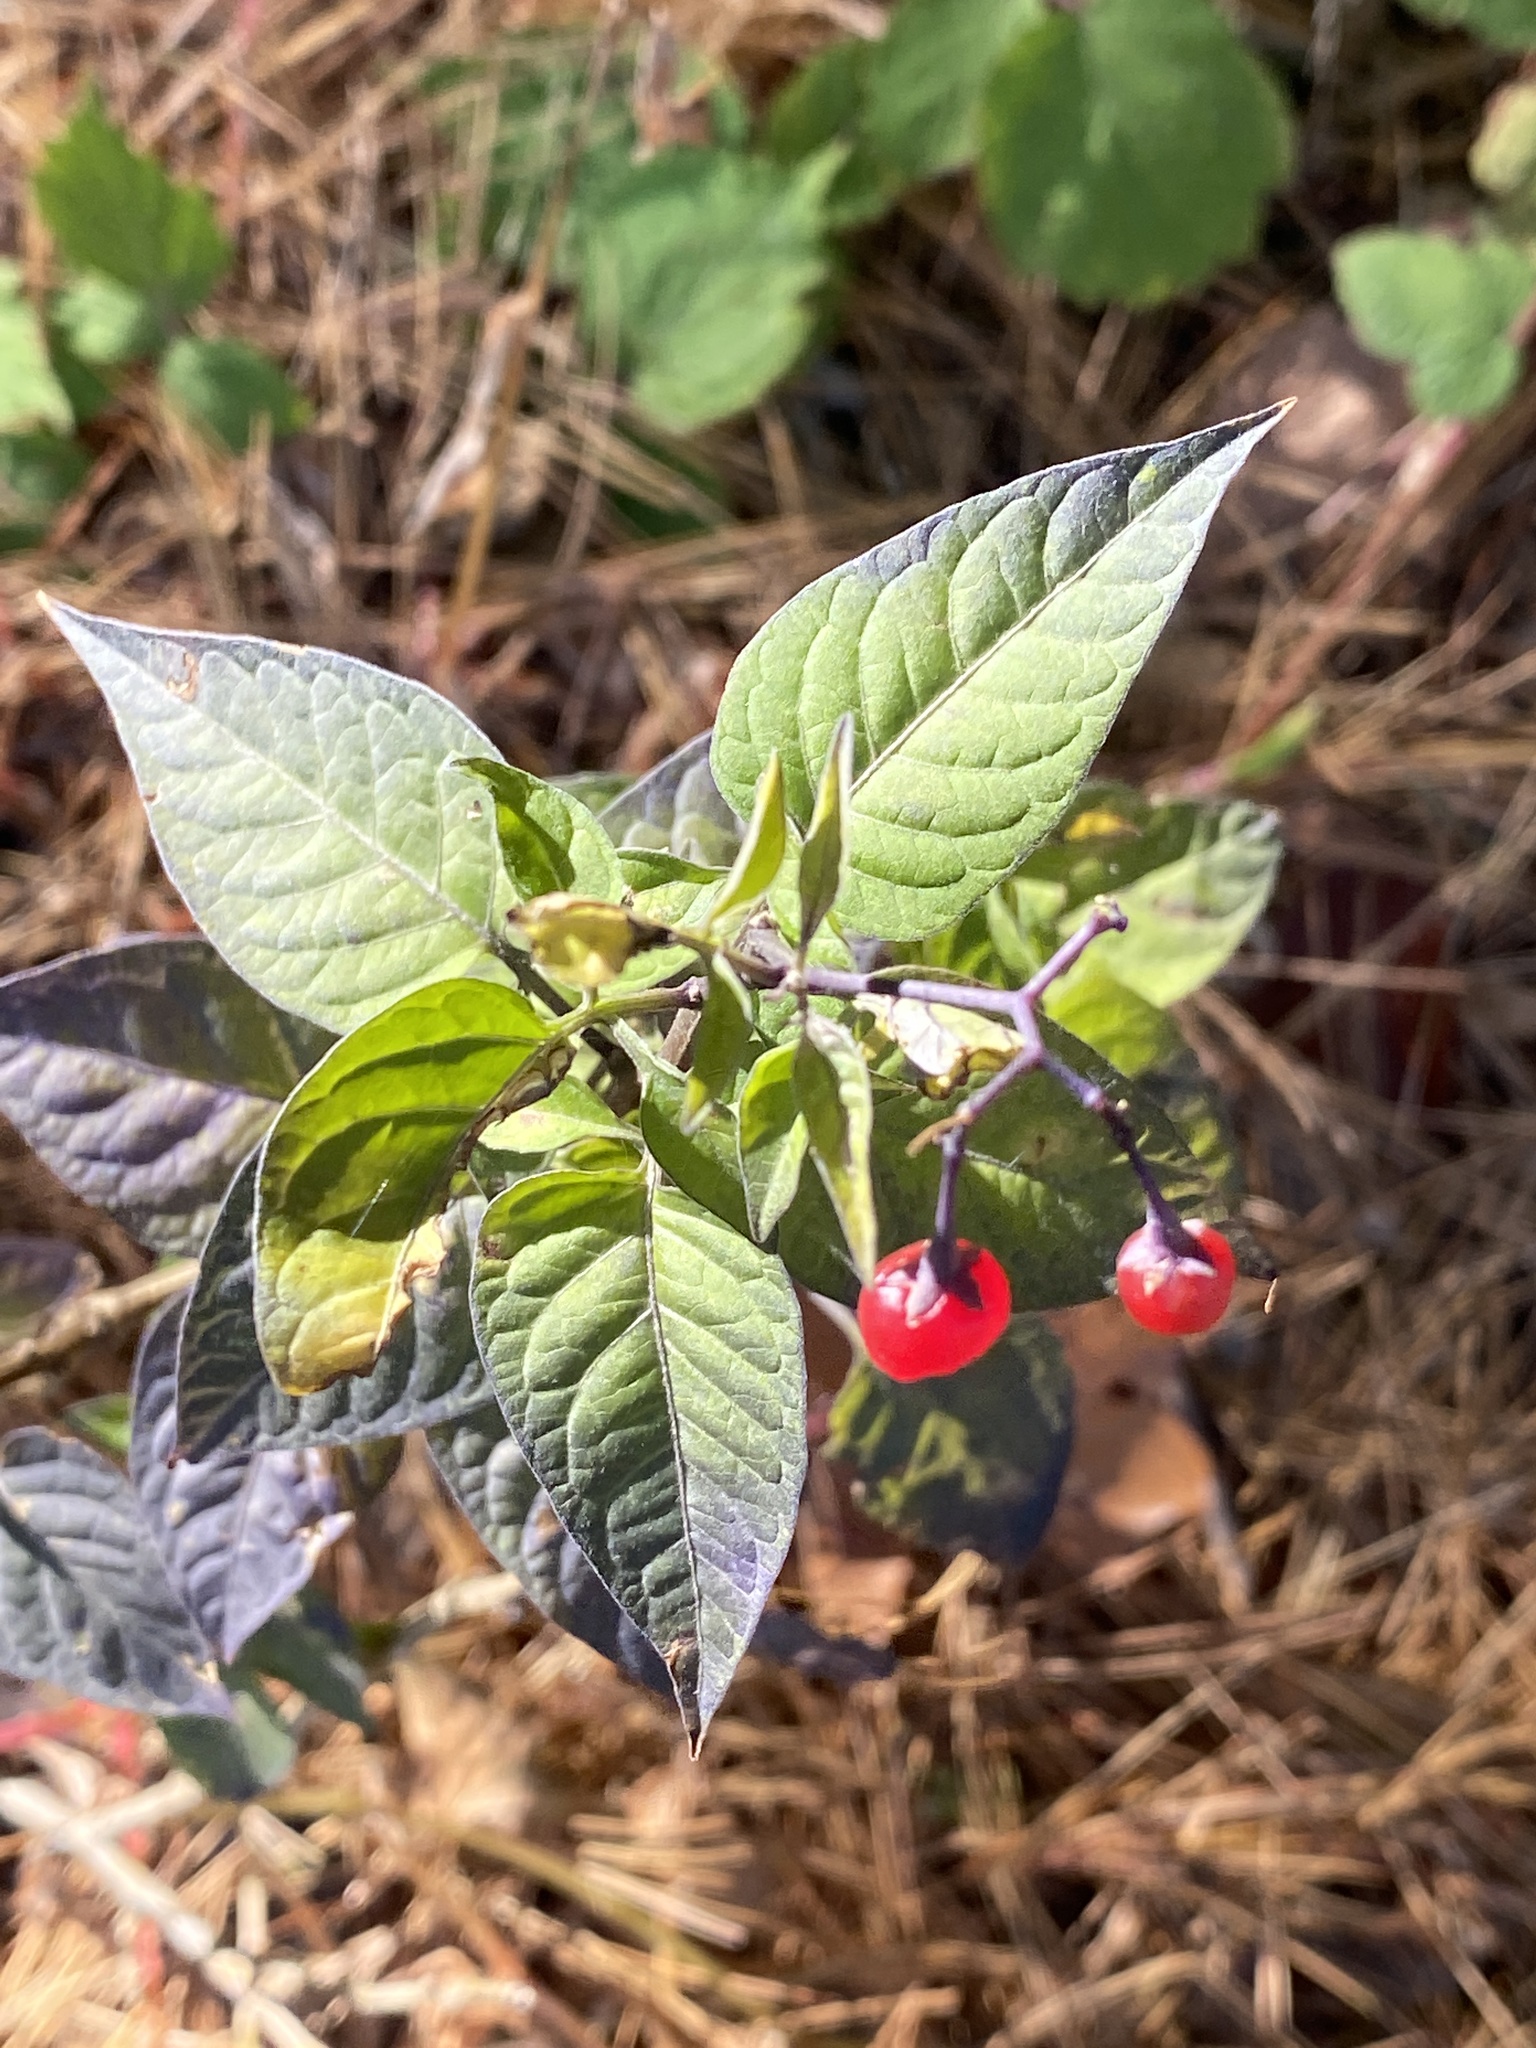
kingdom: Plantae
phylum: Tracheophyta
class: Magnoliopsida
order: Solanales
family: Solanaceae
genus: Solanum
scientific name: Solanum dulcamara
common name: Climbing nightshade
